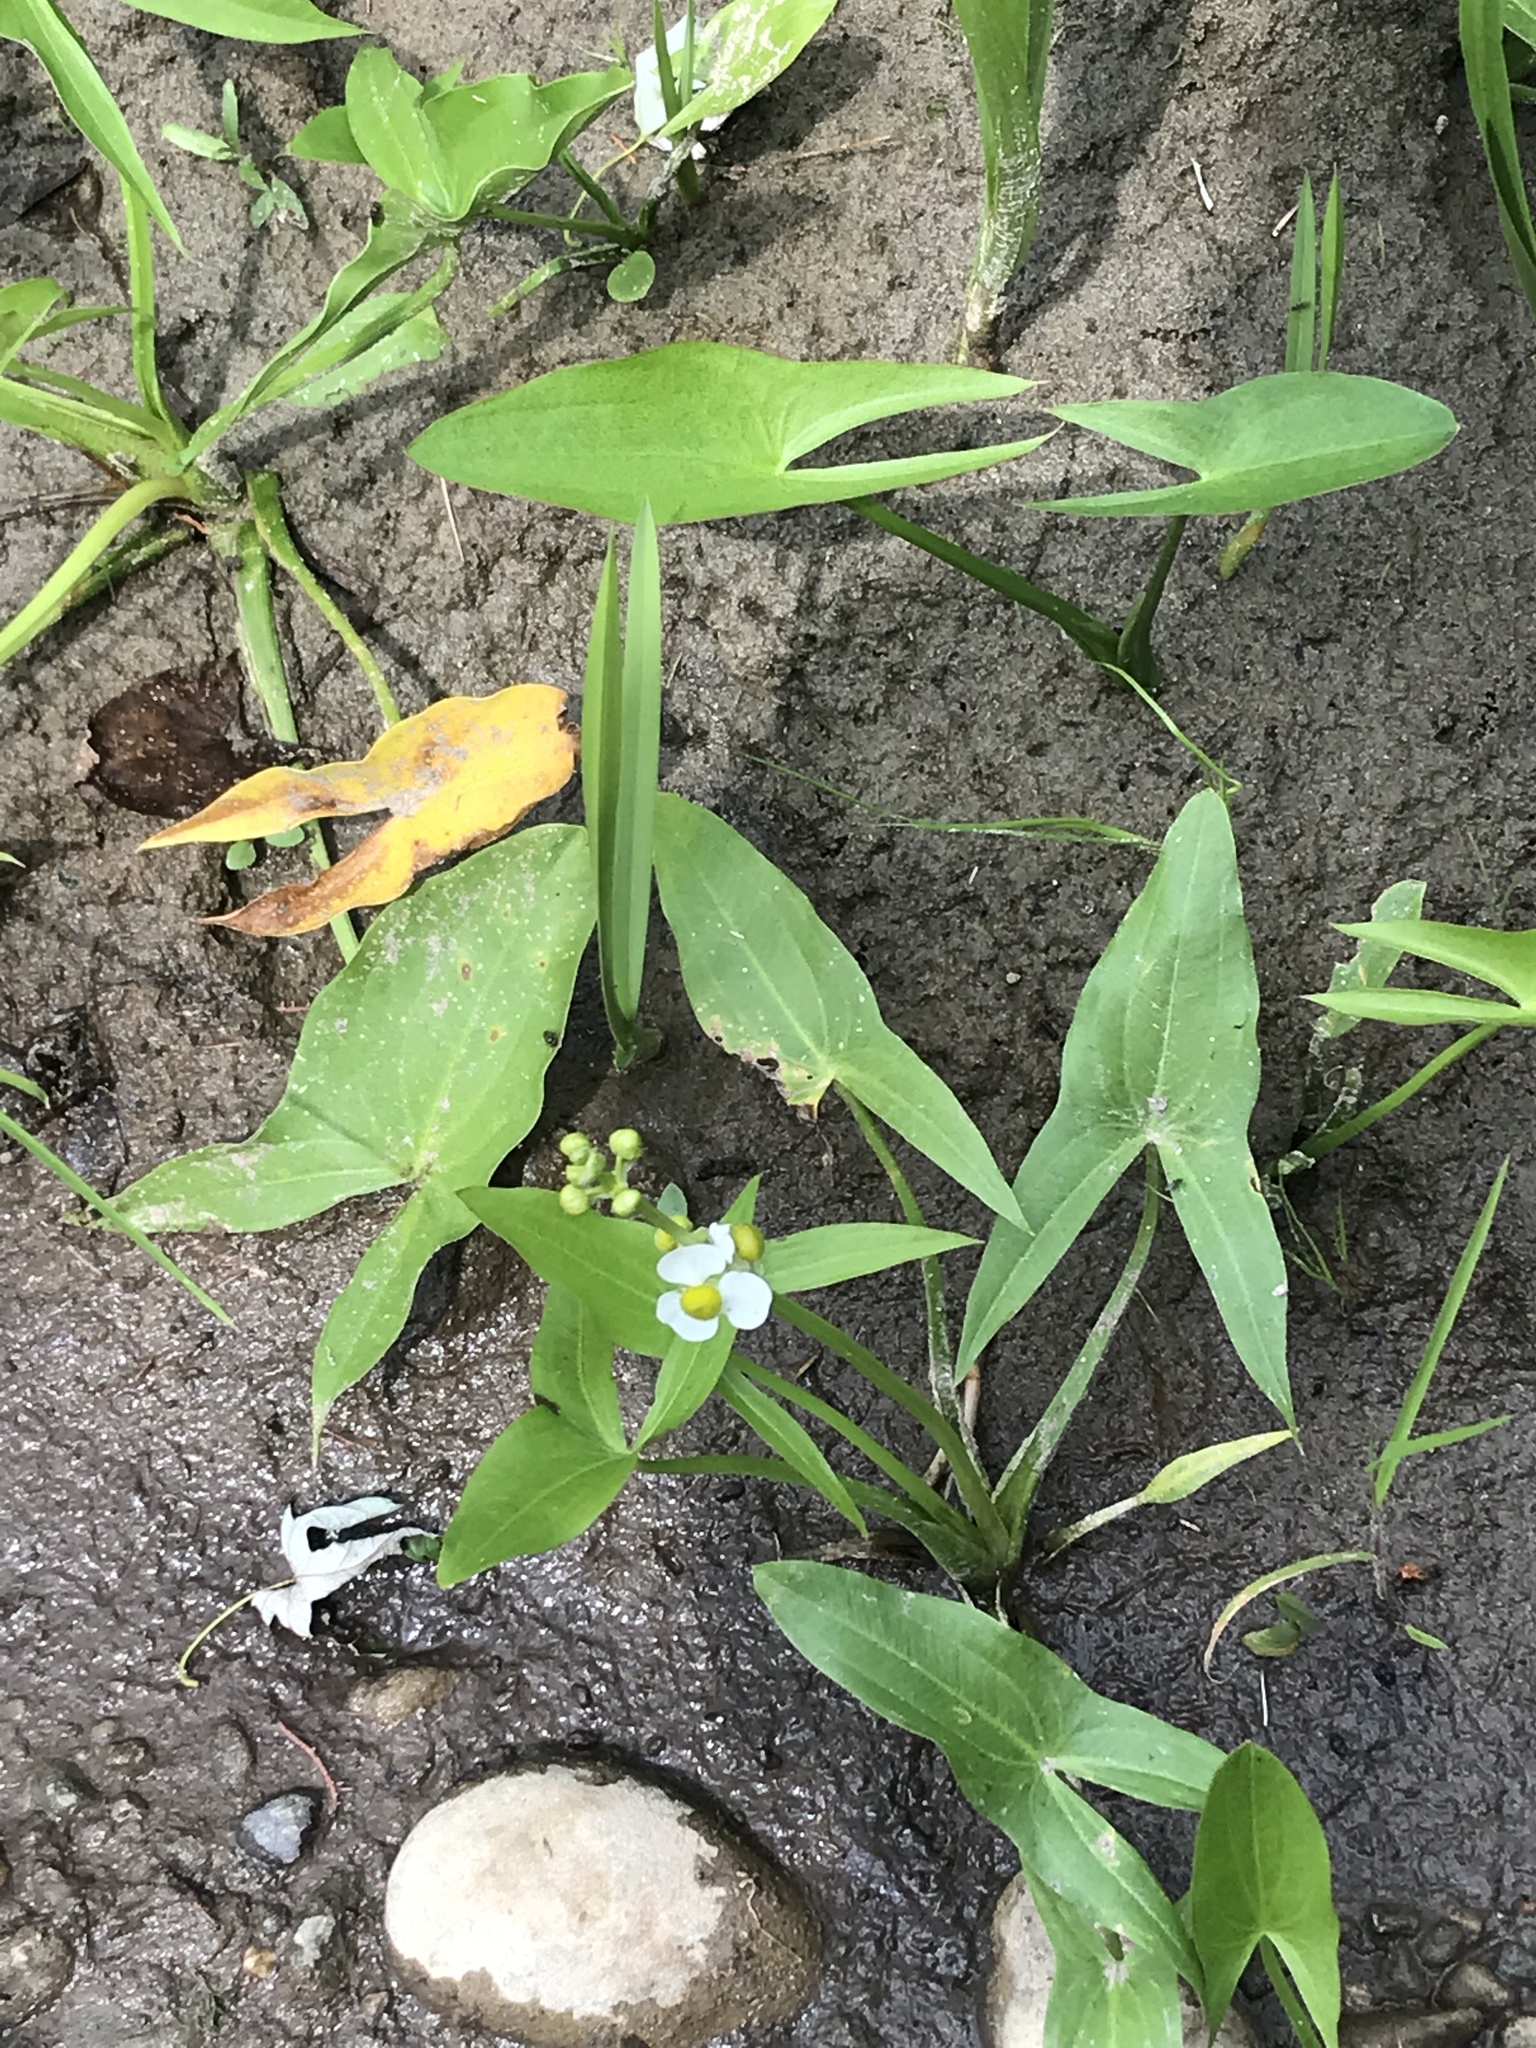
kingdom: Plantae
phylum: Tracheophyta
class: Liliopsida
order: Alismatales
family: Alismataceae
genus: Sagittaria
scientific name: Sagittaria latifolia
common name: Duck-potato
